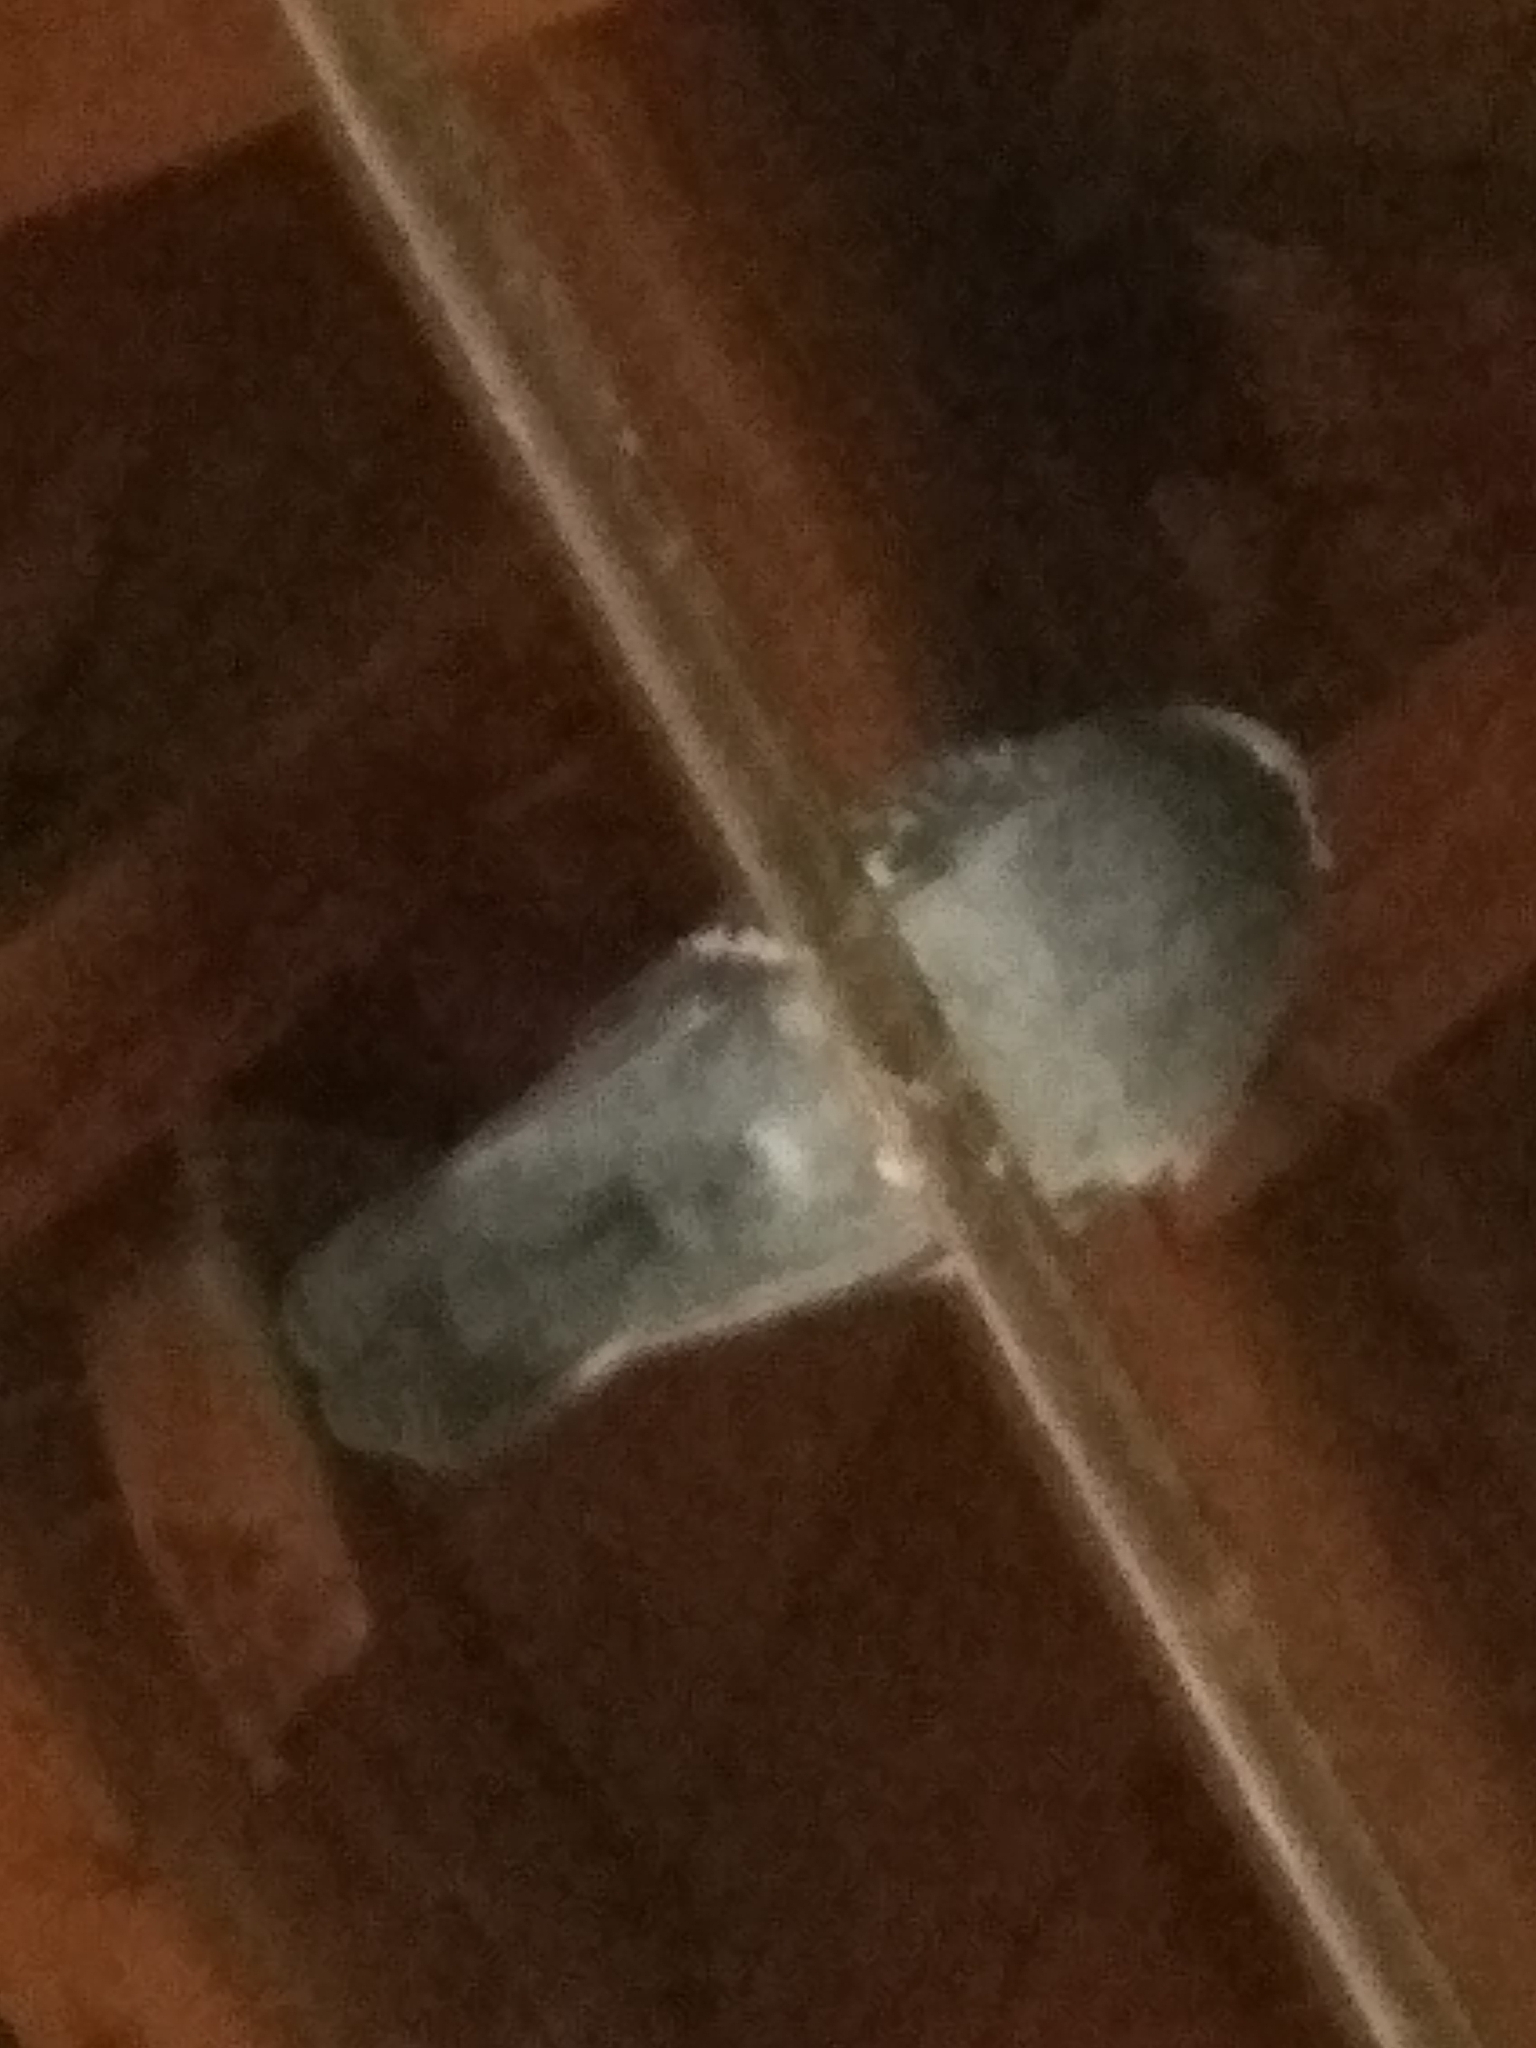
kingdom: Animalia
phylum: Chordata
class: Aves
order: Columbiformes
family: Columbidae
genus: Columba
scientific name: Columba livia
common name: Rock pigeon
